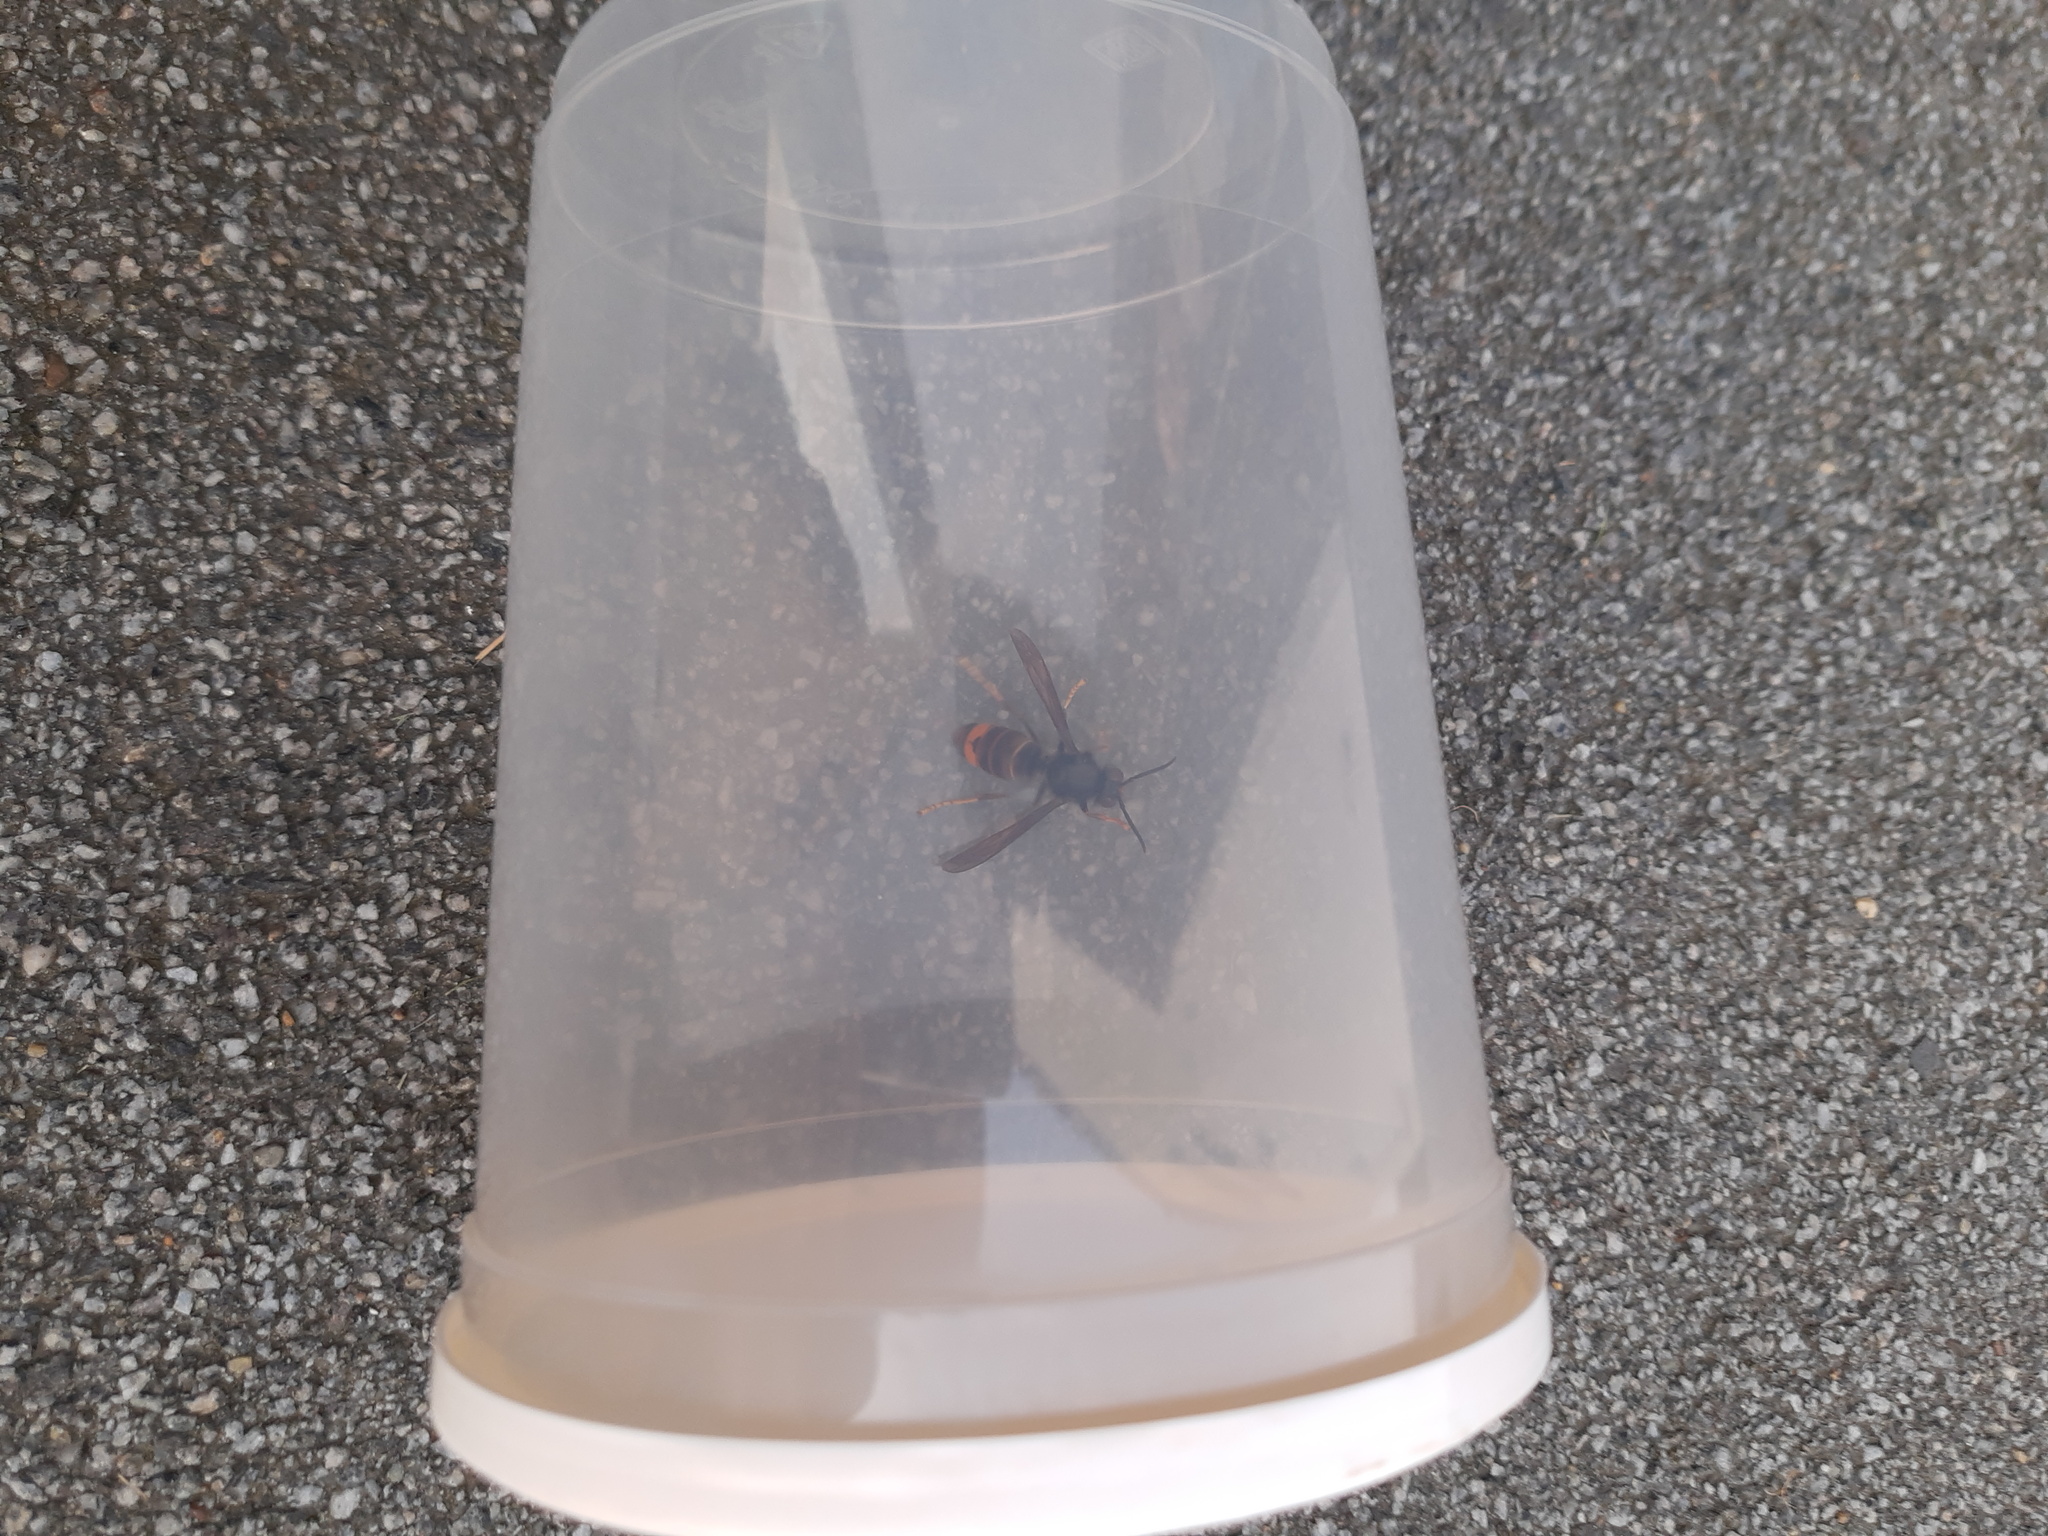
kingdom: Animalia
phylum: Arthropoda
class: Insecta
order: Hymenoptera
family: Vespidae
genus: Vespa
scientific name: Vespa velutina
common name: Asian hornet
